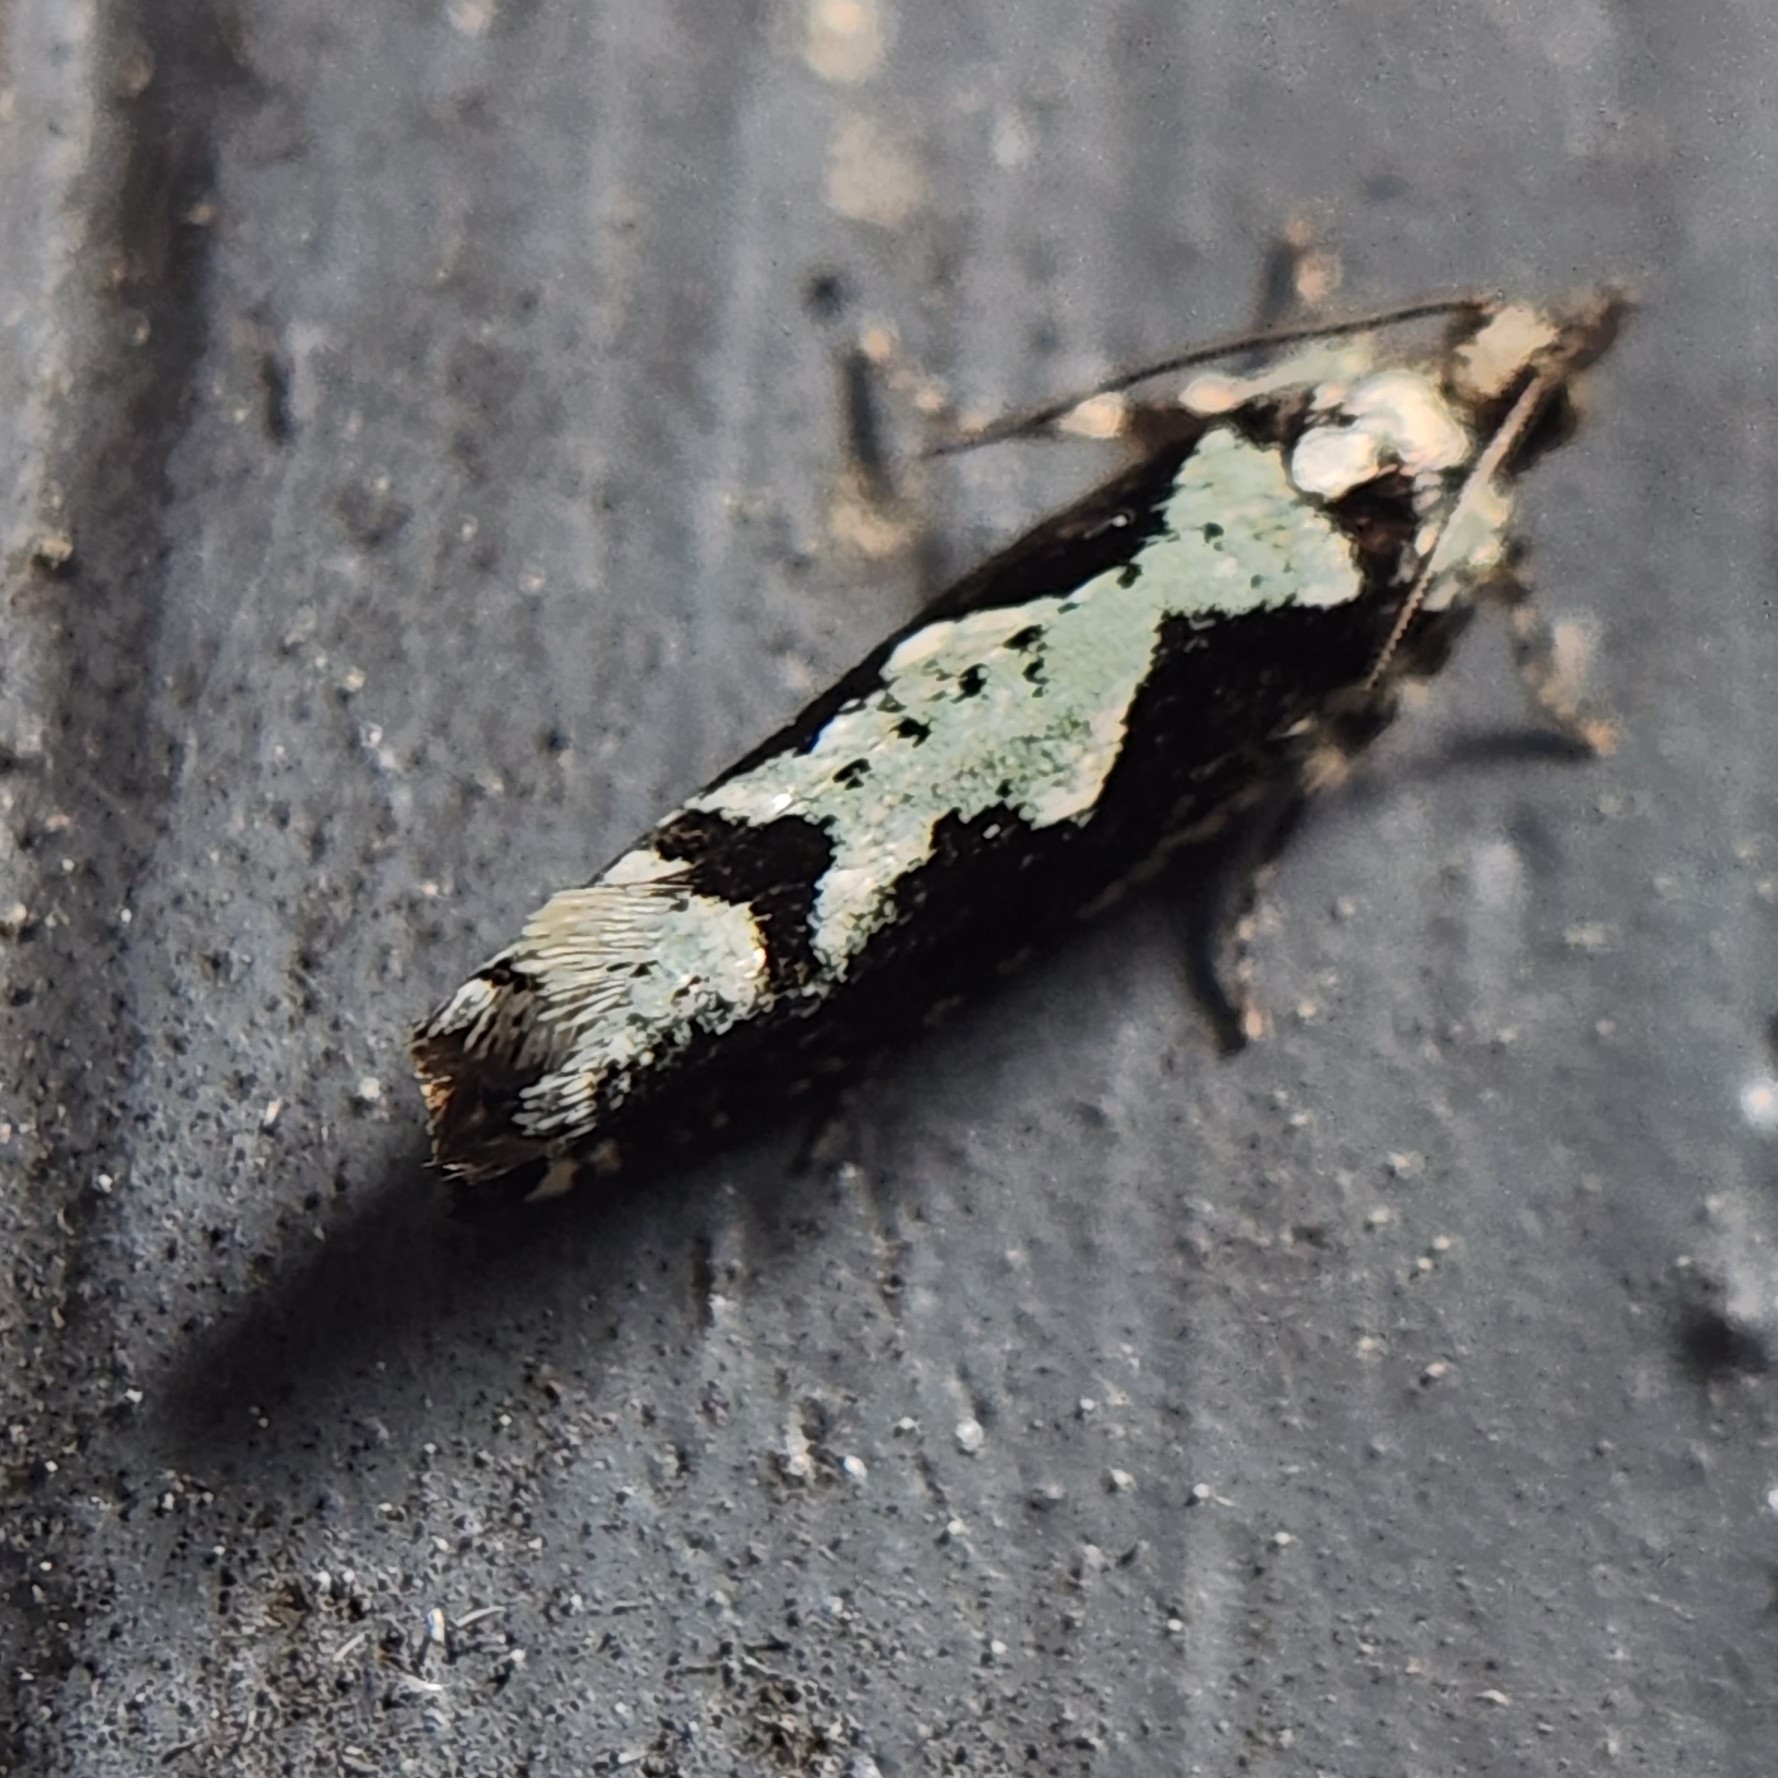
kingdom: Animalia
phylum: Arthropoda
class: Insecta
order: Lepidoptera
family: Tortricidae
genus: Chimoptesis
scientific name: Chimoptesis pennsylvaniana
